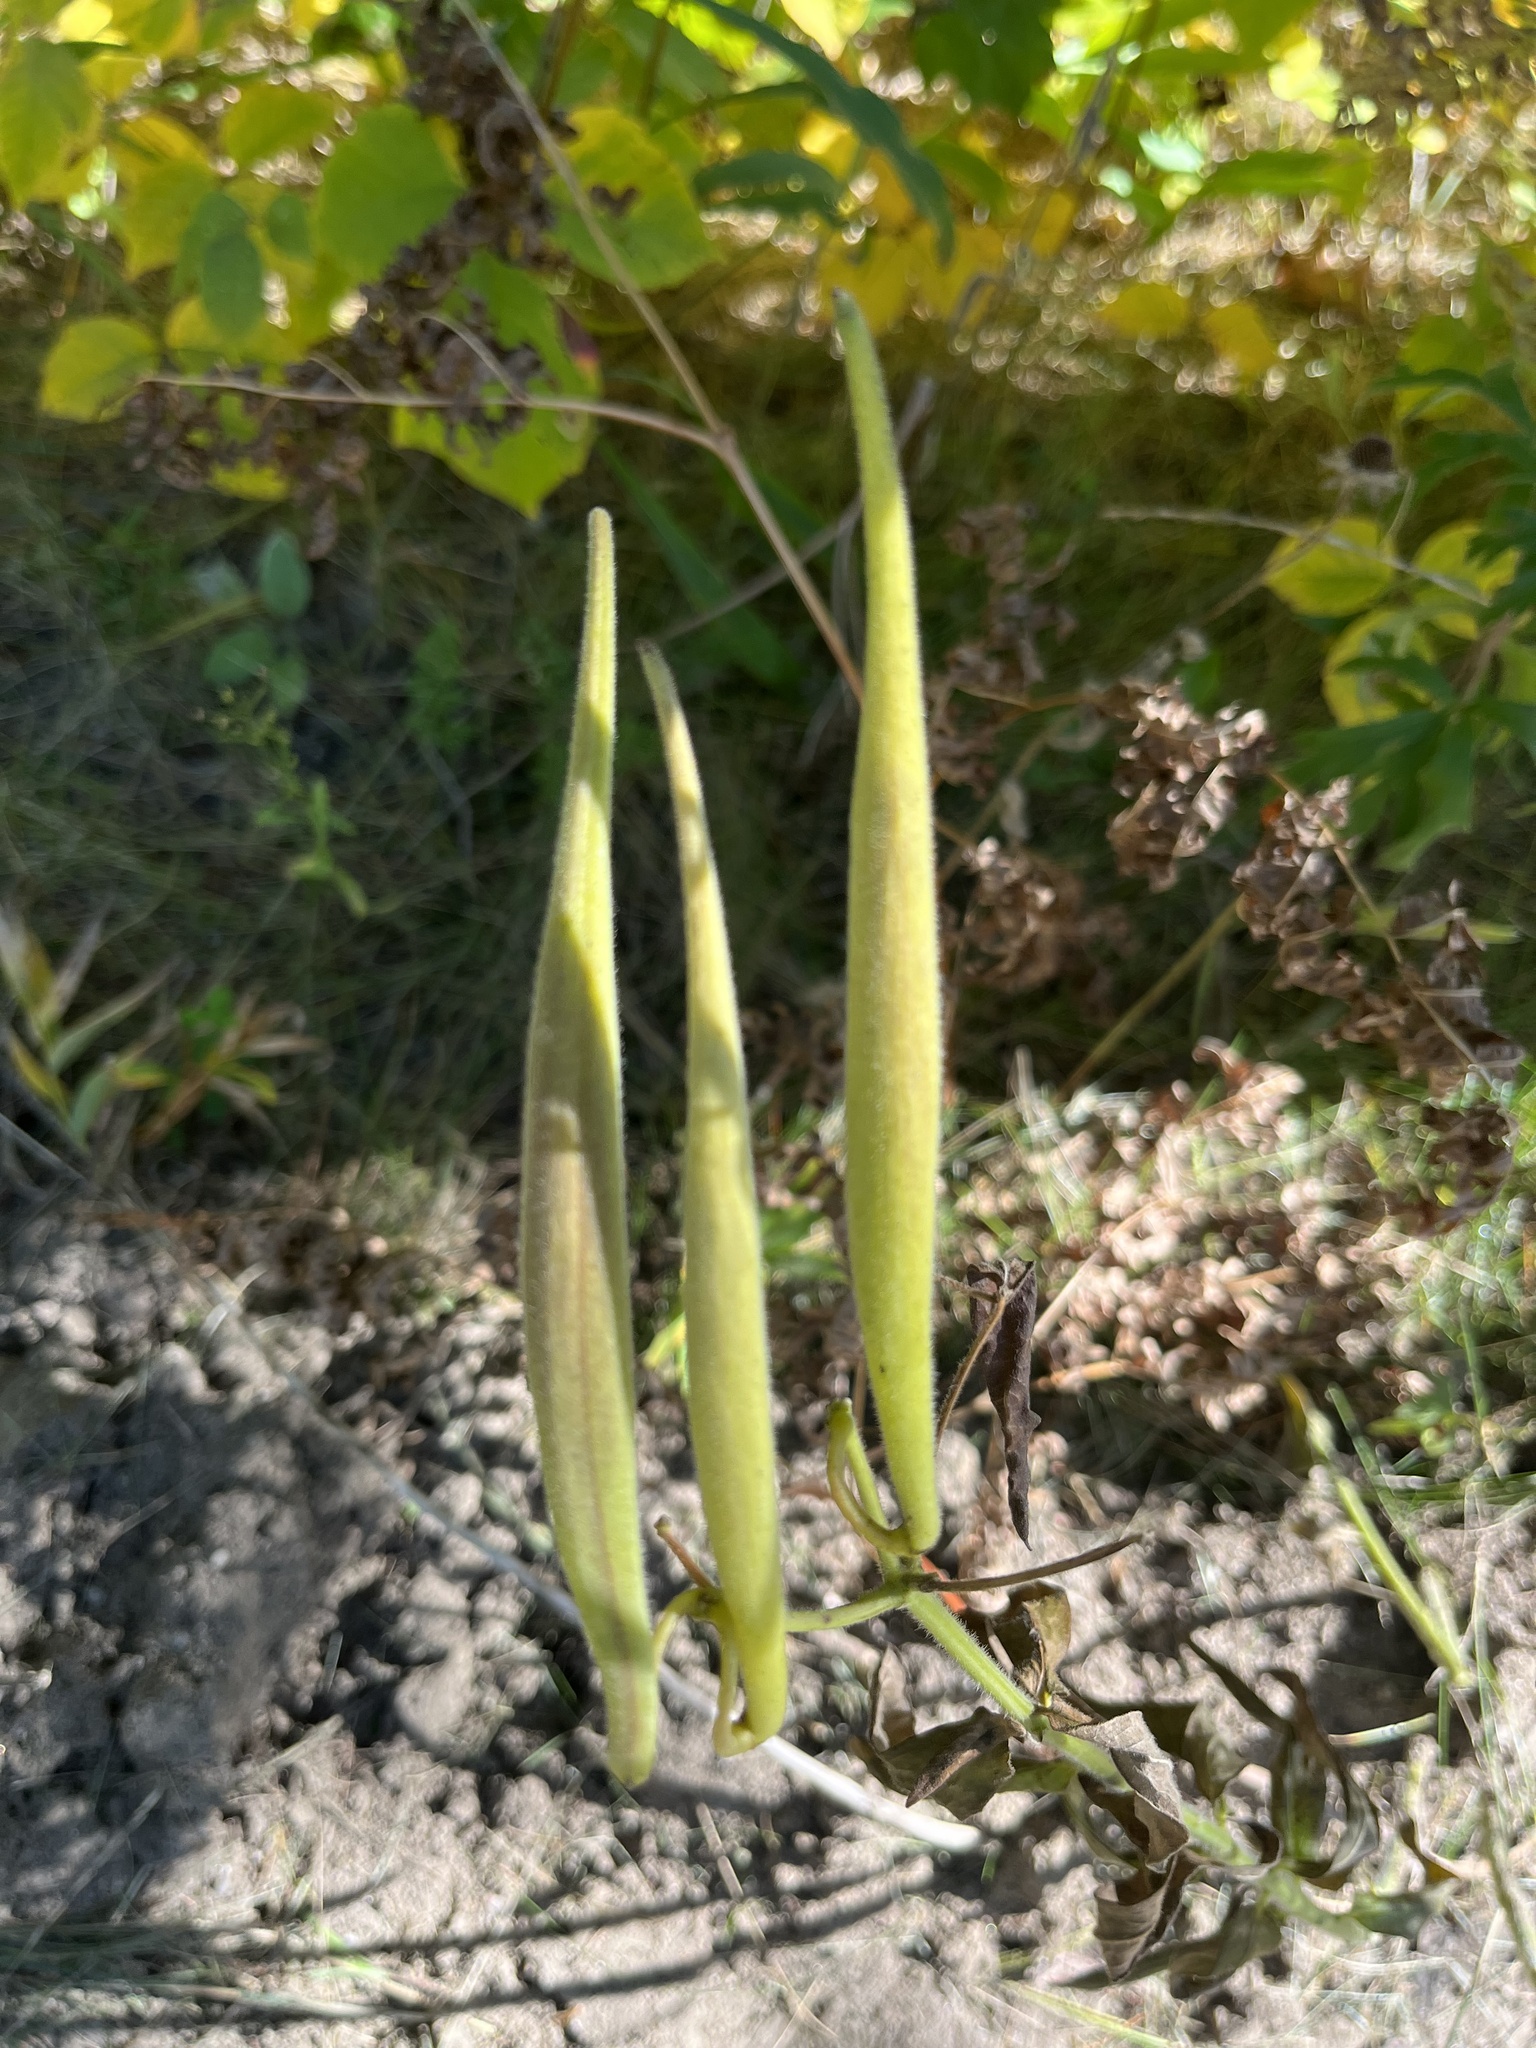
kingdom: Plantae
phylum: Tracheophyta
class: Magnoliopsida
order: Gentianales
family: Apocynaceae
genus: Asclepias
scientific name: Asclepias tuberosa
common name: Butterfly milkweed
